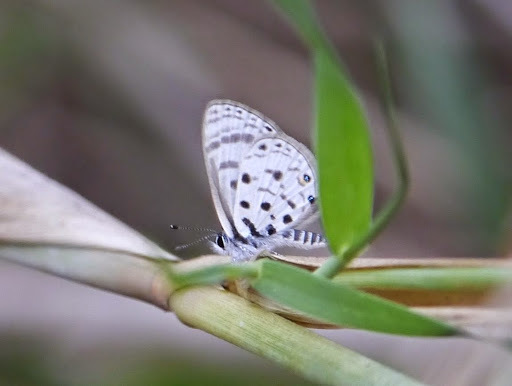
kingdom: Animalia
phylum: Arthropoda
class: Insecta
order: Lepidoptera
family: Lycaenidae
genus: Azanus
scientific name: Azanus moriqua
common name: Thorn-tree babul blue
